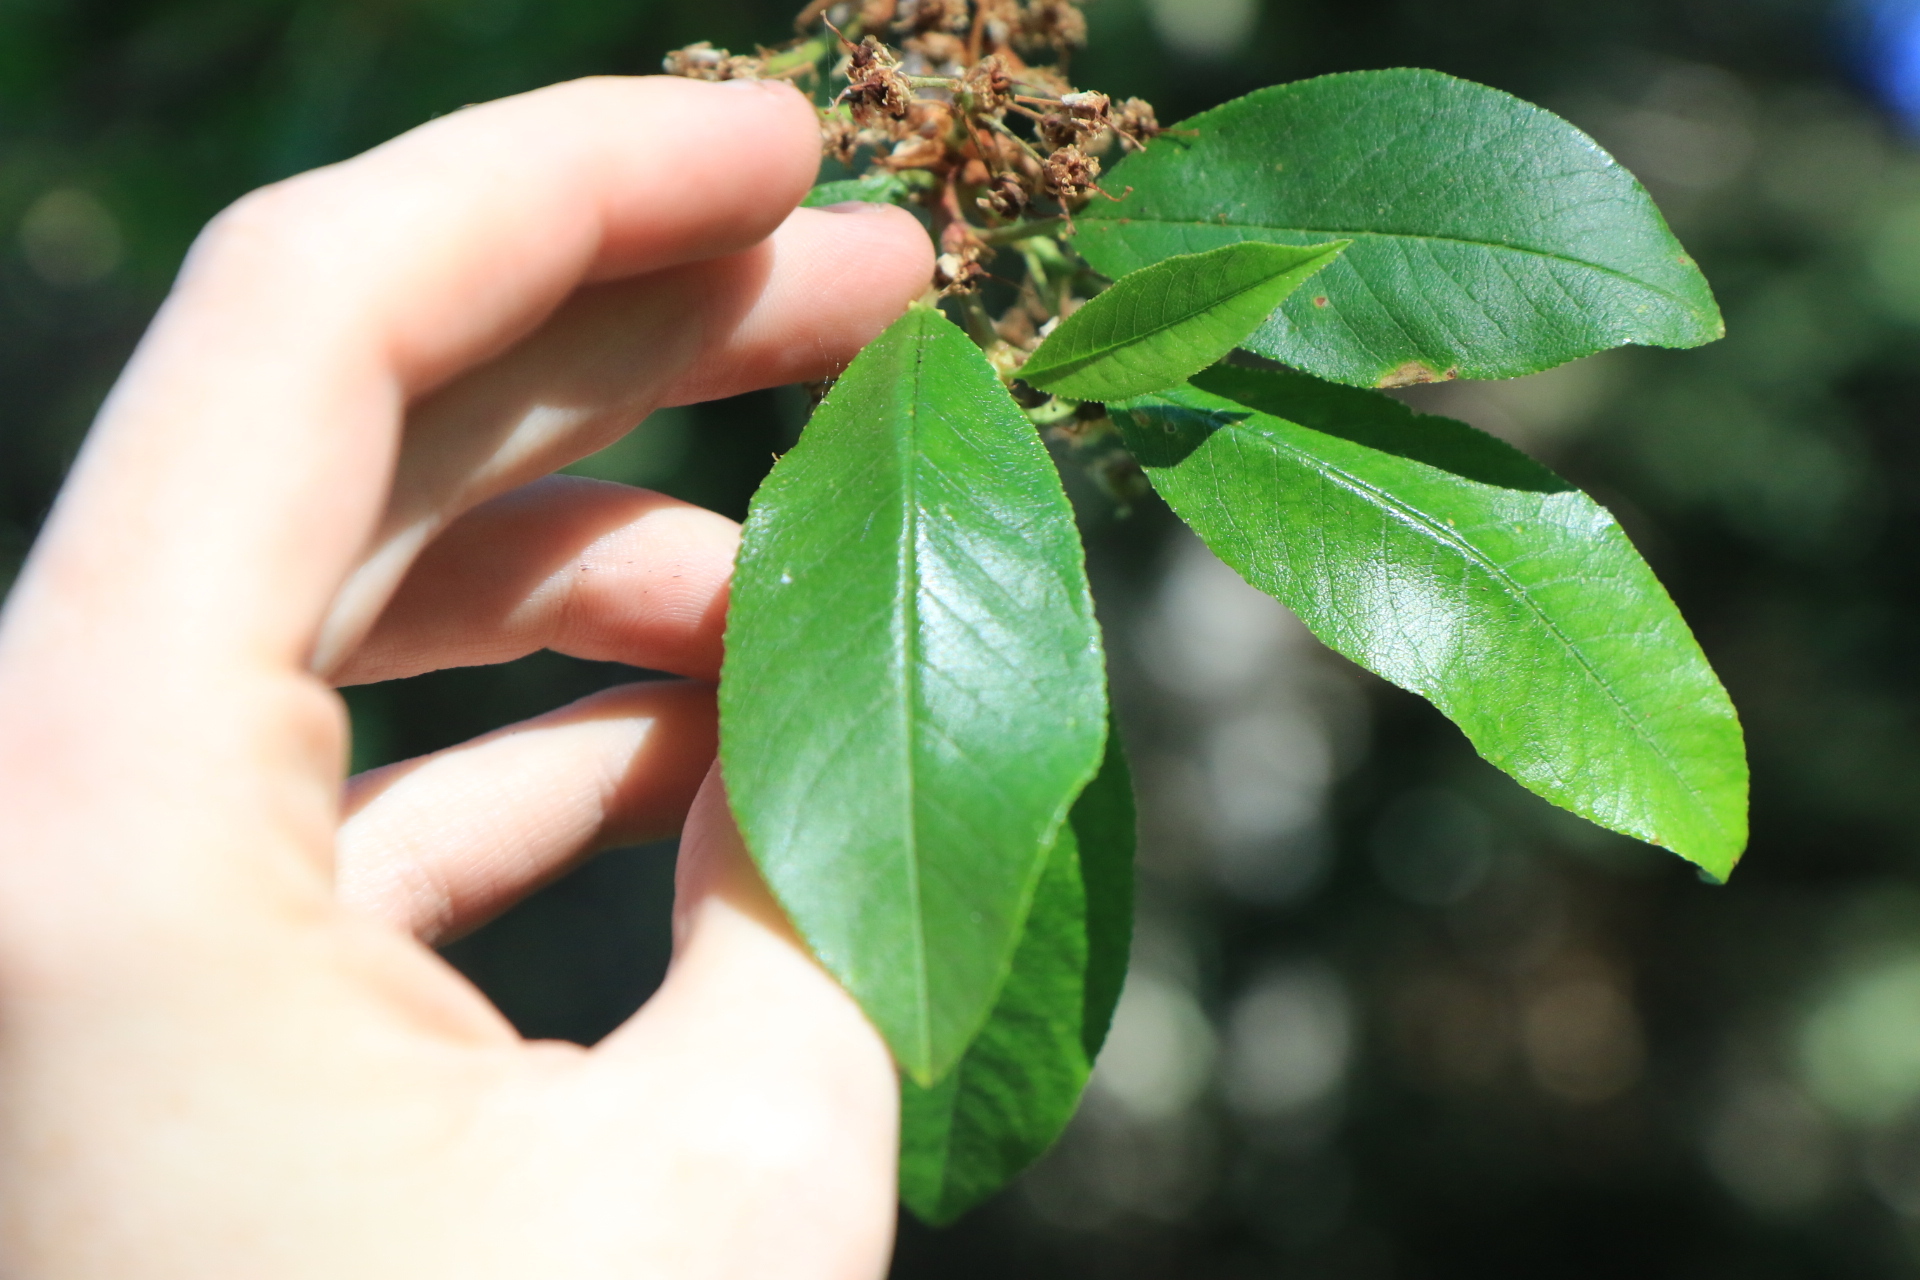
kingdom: Plantae
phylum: Tracheophyta
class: Magnoliopsida
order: Rosales
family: Rosaceae
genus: Prunus
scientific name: Prunus emarginata
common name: Bitter cherry
